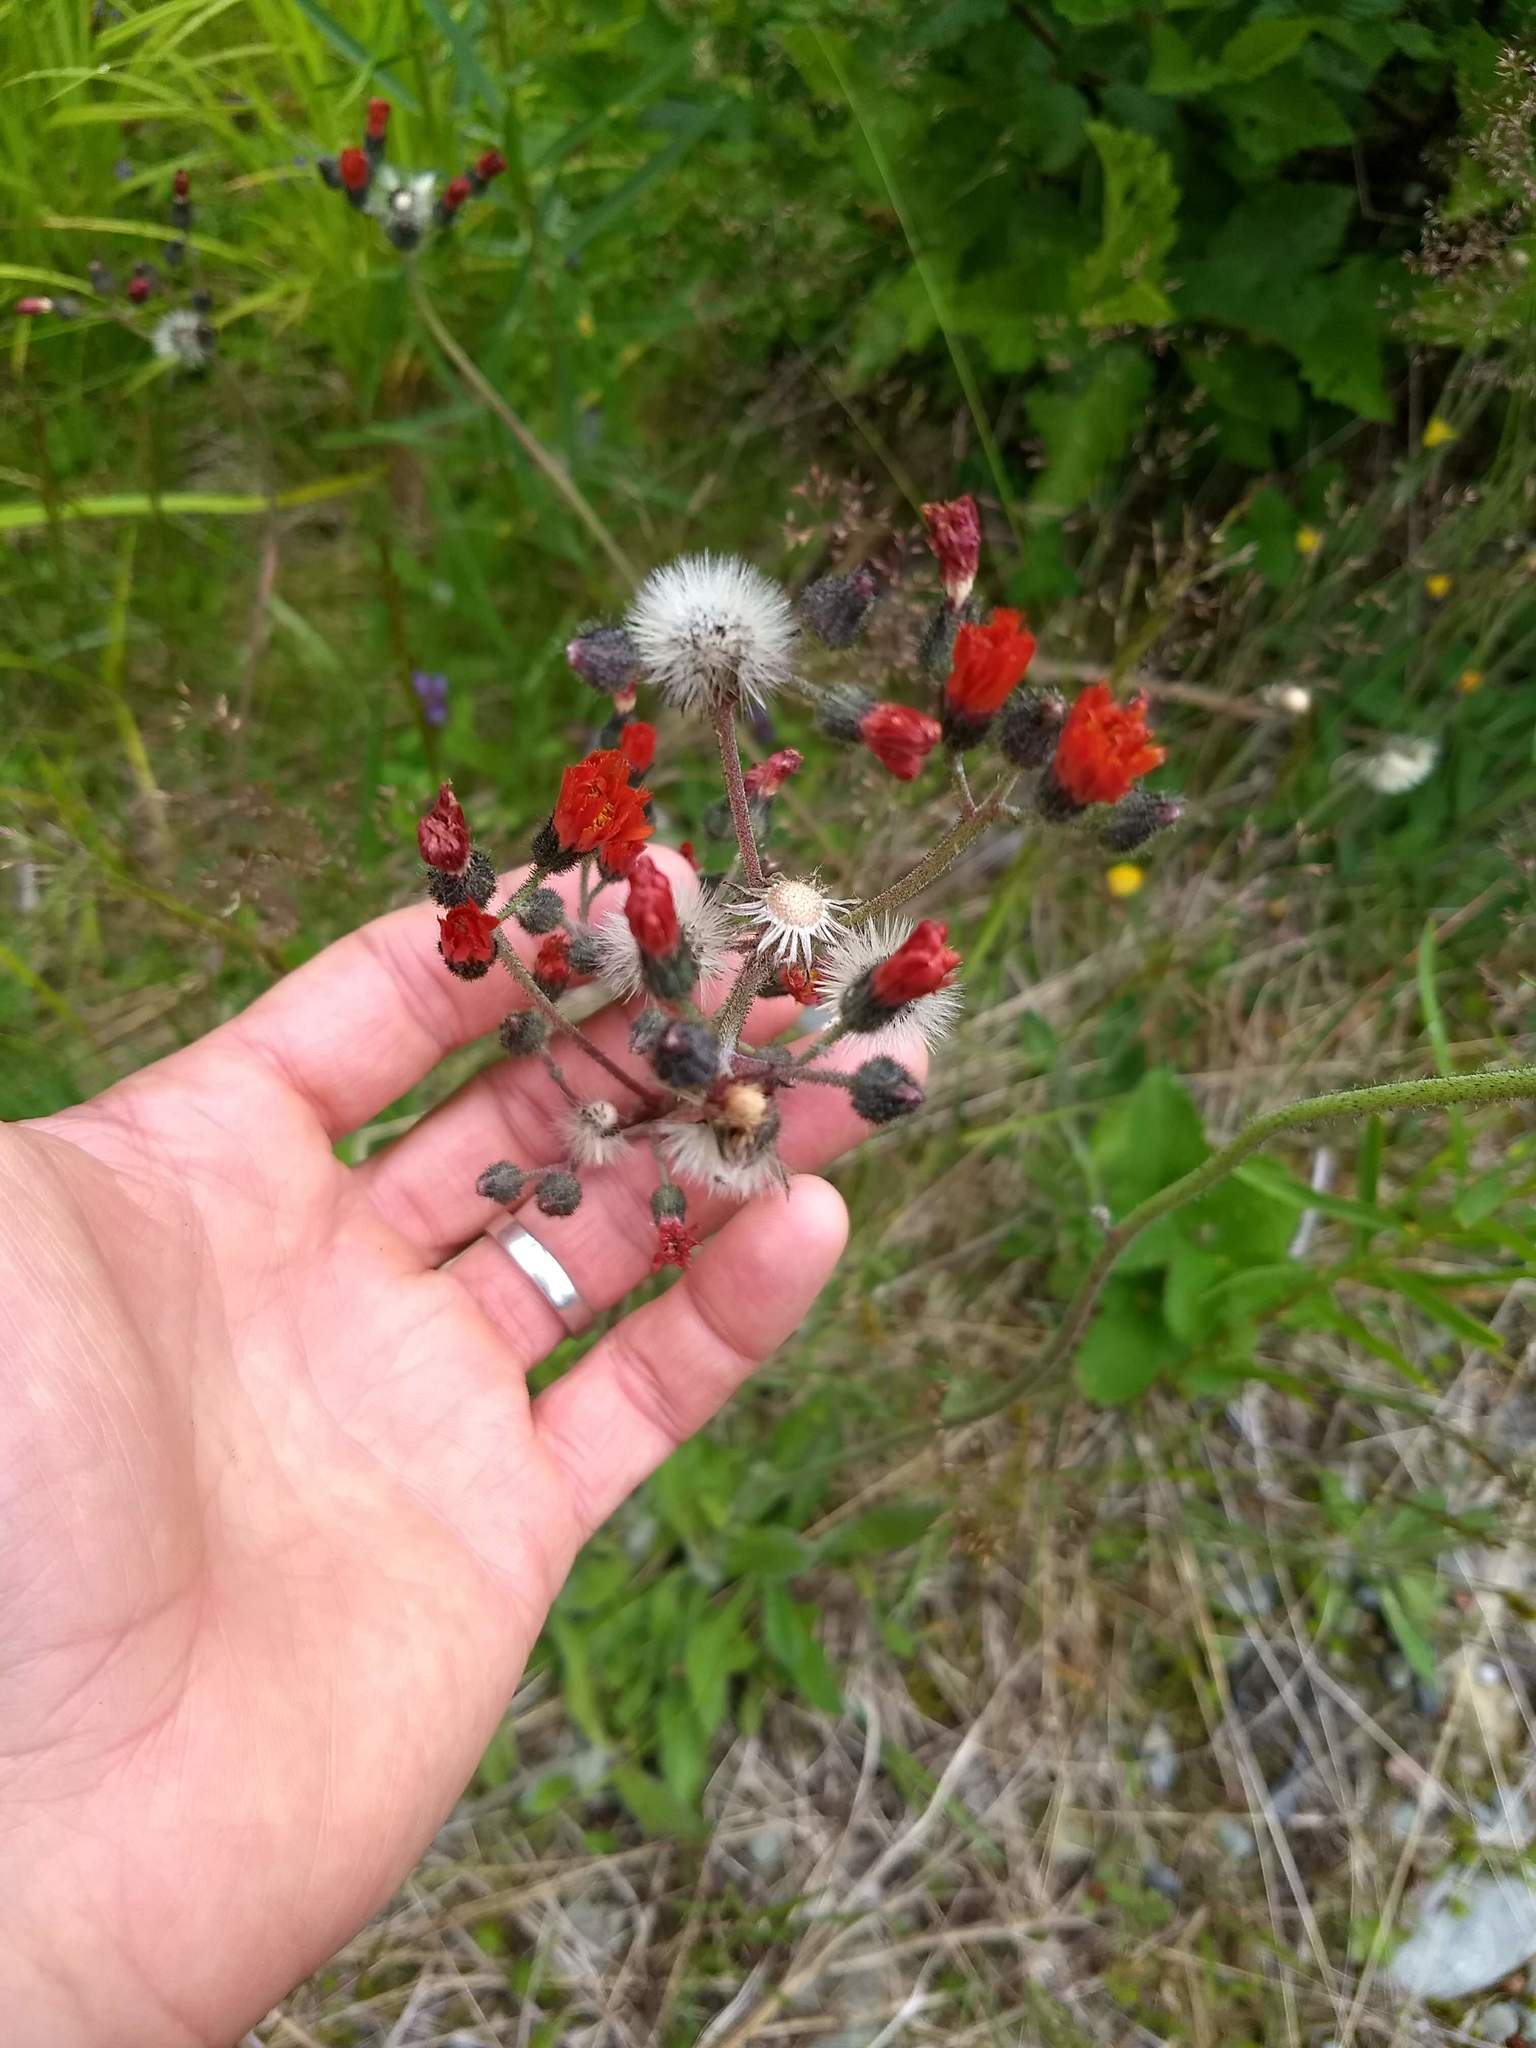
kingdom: Plantae
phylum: Tracheophyta
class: Magnoliopsida
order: Asterales
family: Asteraceae
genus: Pilosella
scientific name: Pilosella aurantiaca
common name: Fox-and-cubs
